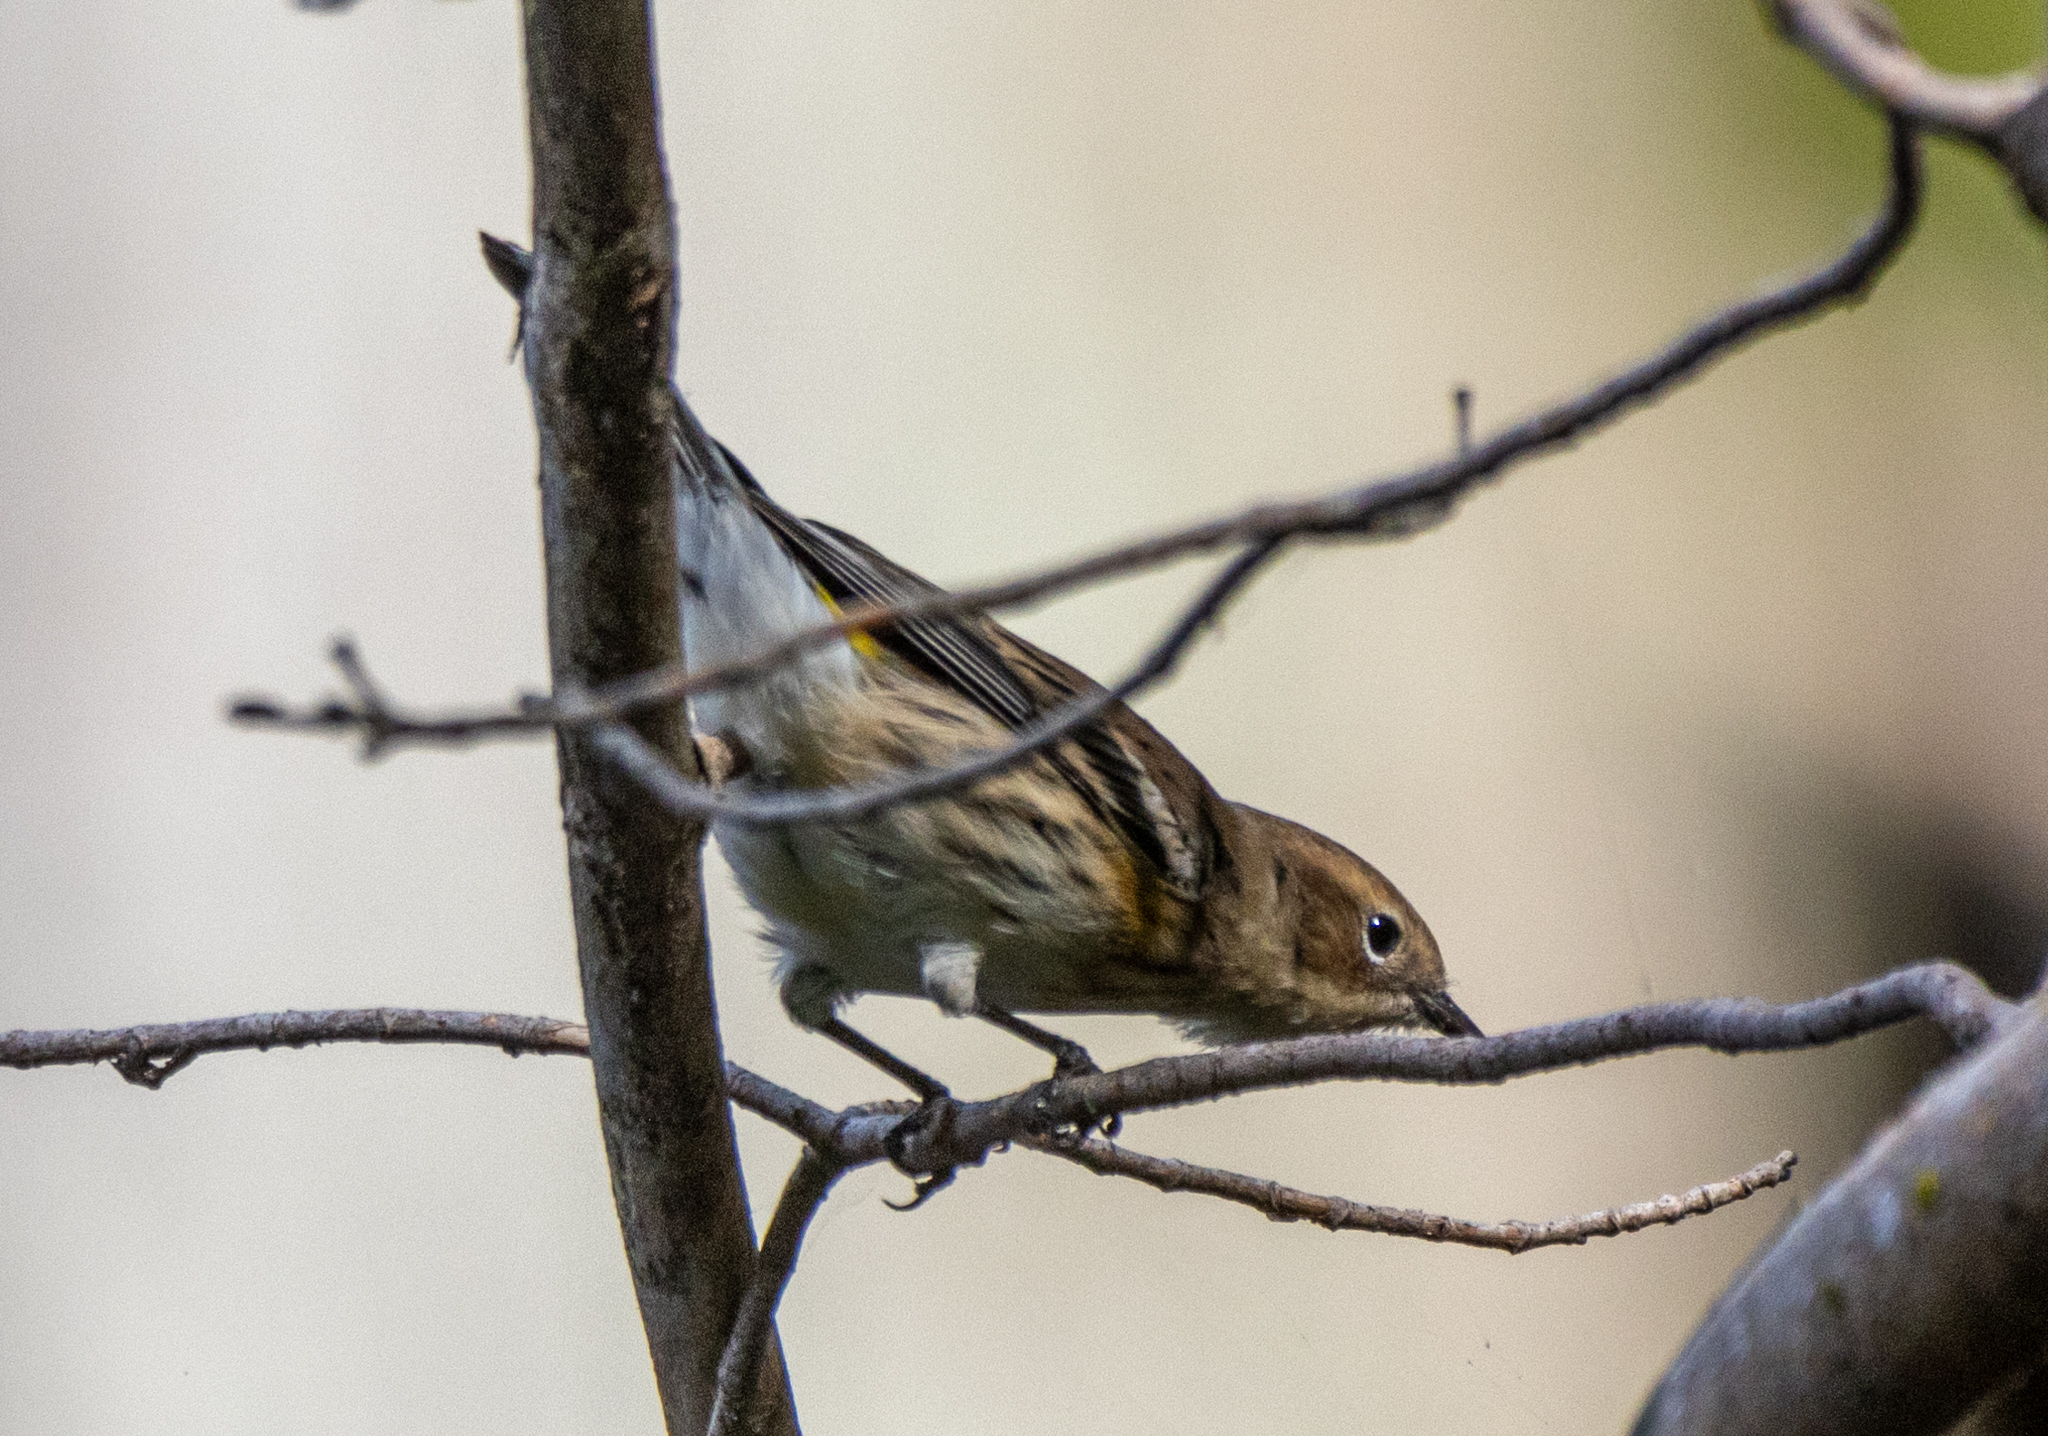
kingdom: Animalia
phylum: Chordata
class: Aves
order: Passeriformes
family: Parulidae
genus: Setophaga
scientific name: Setophaga coronata
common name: Myrtle warbler
